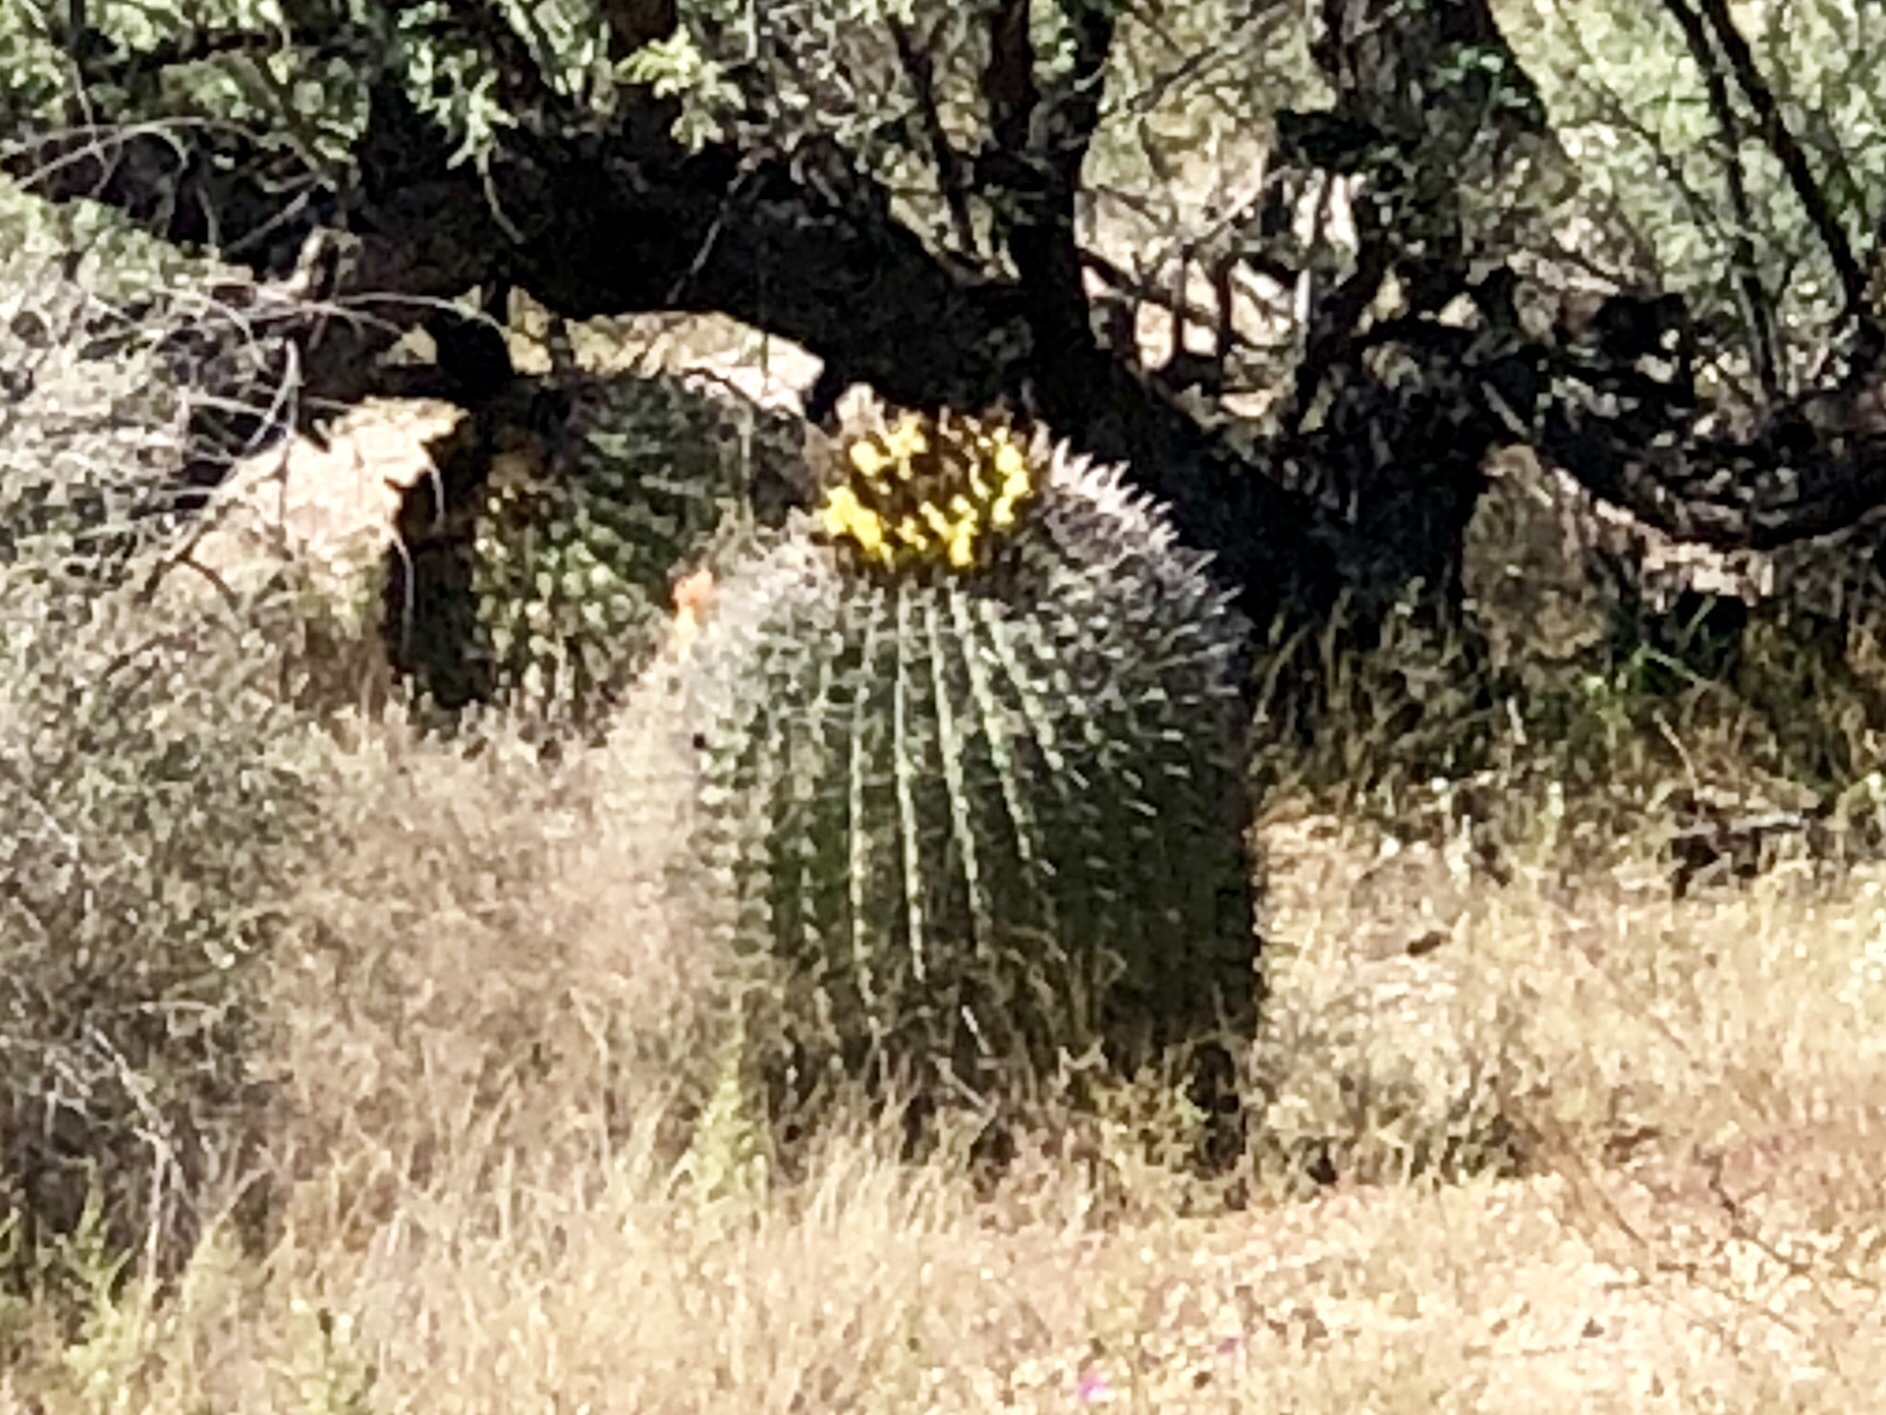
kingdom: Plantae
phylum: Tracheophyta
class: Magnoliopsida
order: Caryophyllales
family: Cactaceae
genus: Ferocactus
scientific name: Ferocactus wislizeni
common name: Candy barrel cactus
